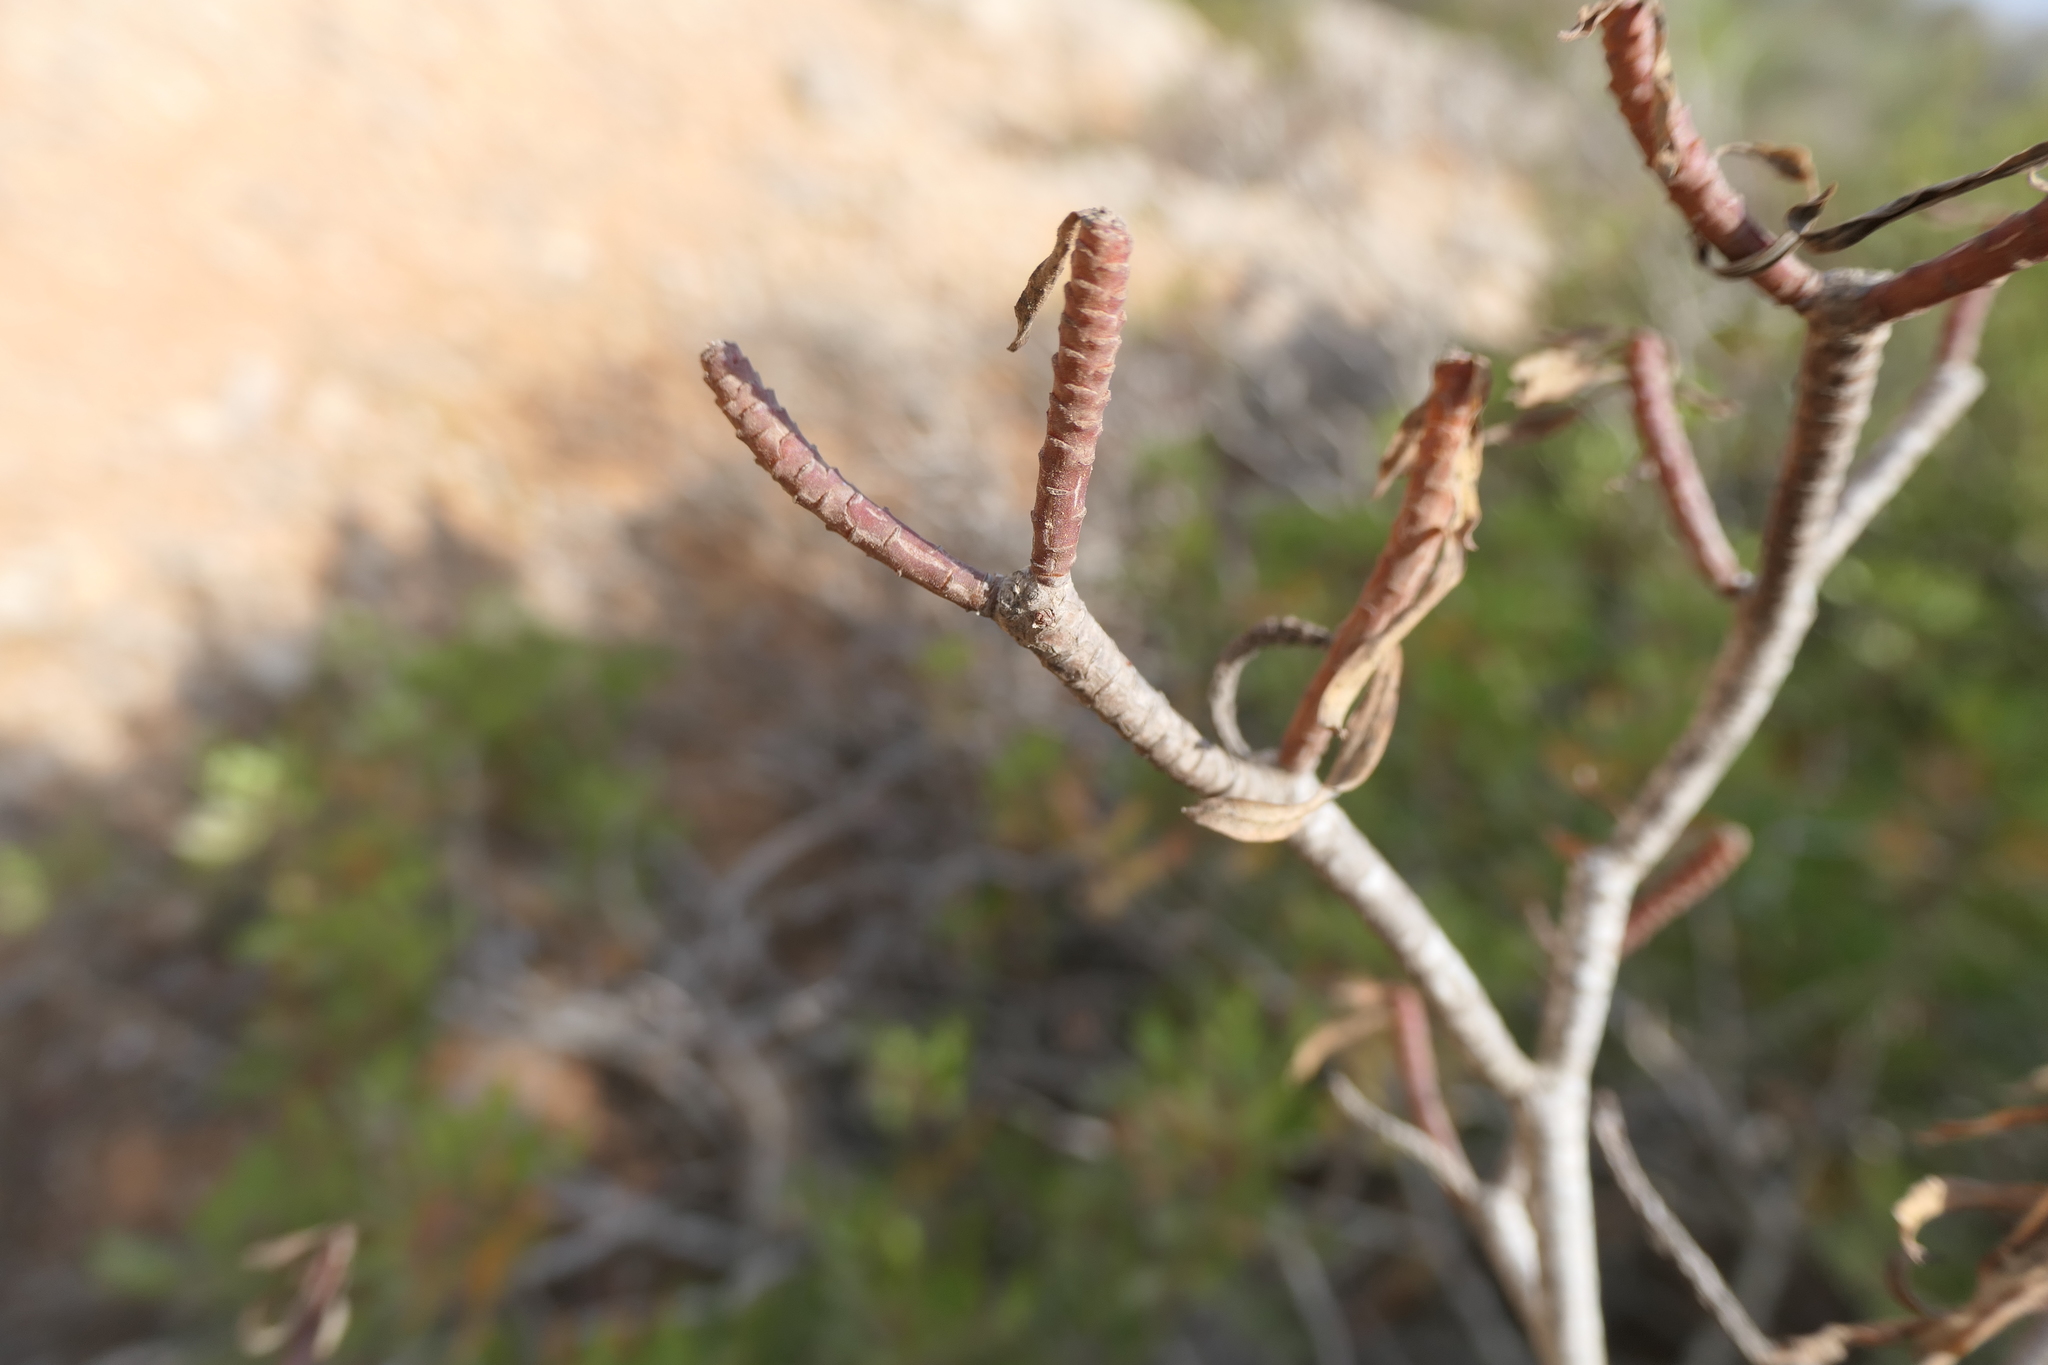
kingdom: Plantae
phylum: Tracheophyta
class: Magnoliopsida
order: Malpighiales
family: Euphorbiaceae
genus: Euphorbia
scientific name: Euphorbia dendroides
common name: Tree spurge
